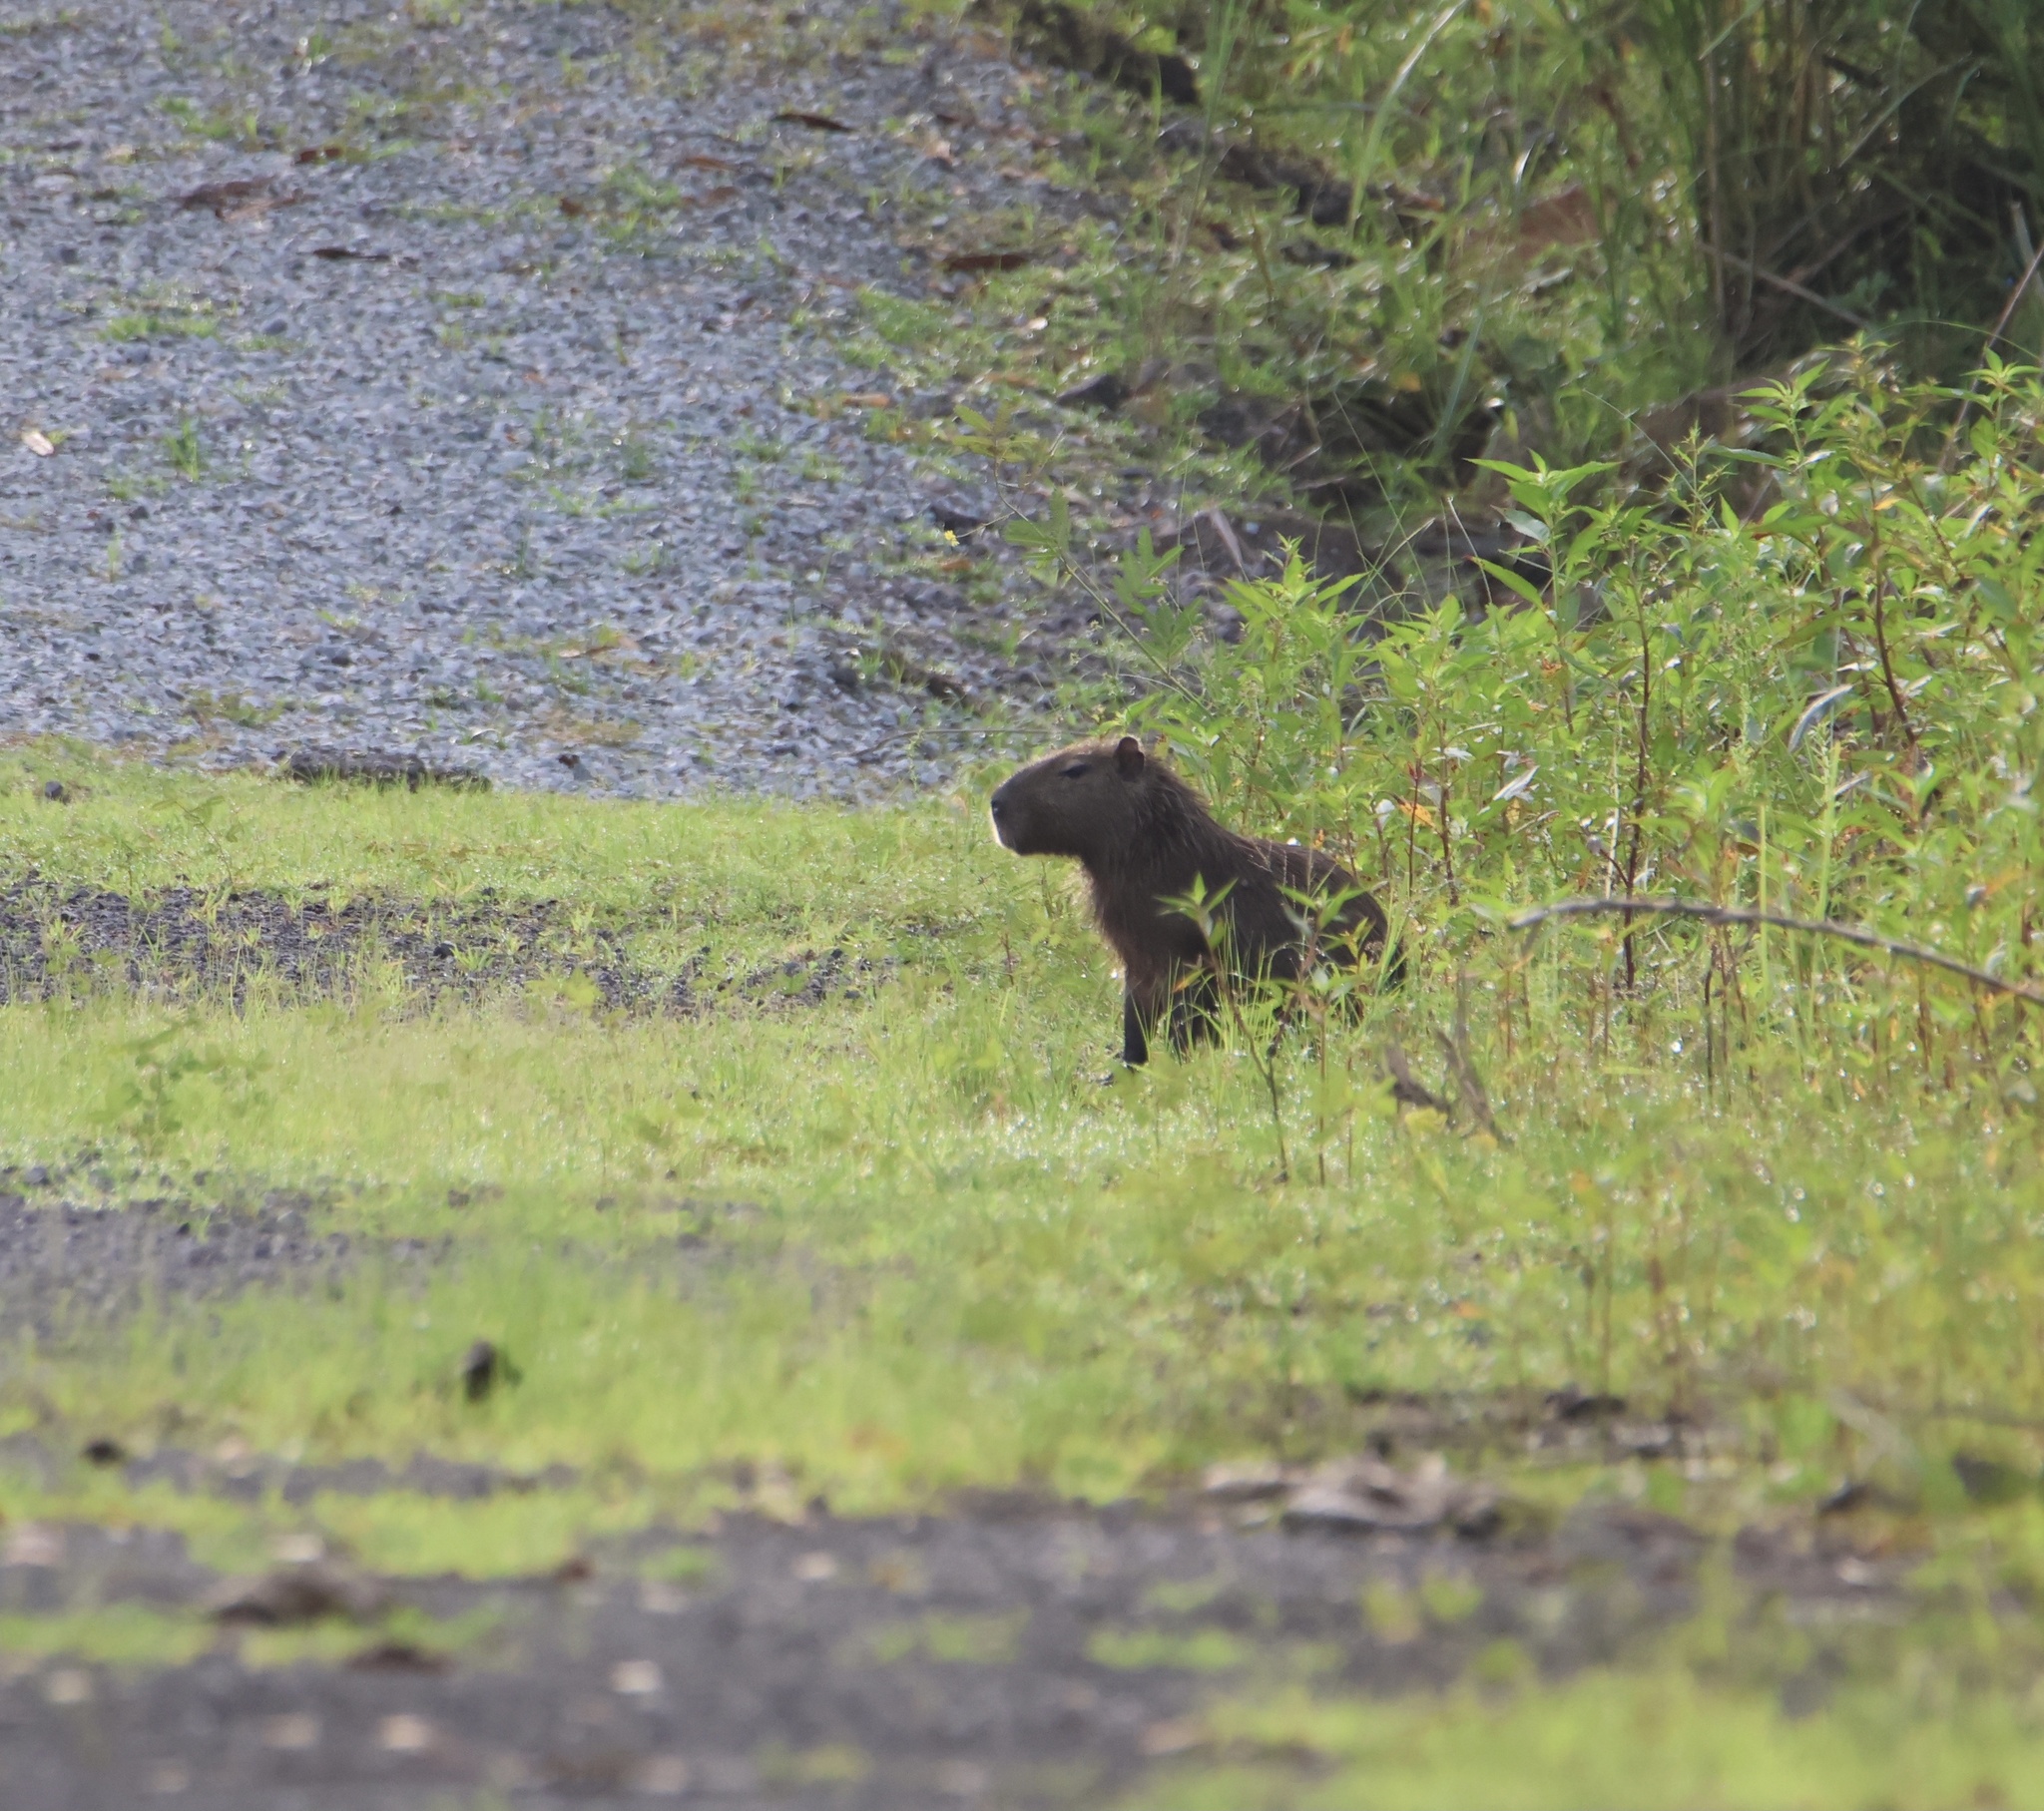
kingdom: Animalia
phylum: Chordata
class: Mammalia
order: Rodentia
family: Caviidae
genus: Hydrochoerus
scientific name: Hydrochoerus isthmius
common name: Lesser capybara
